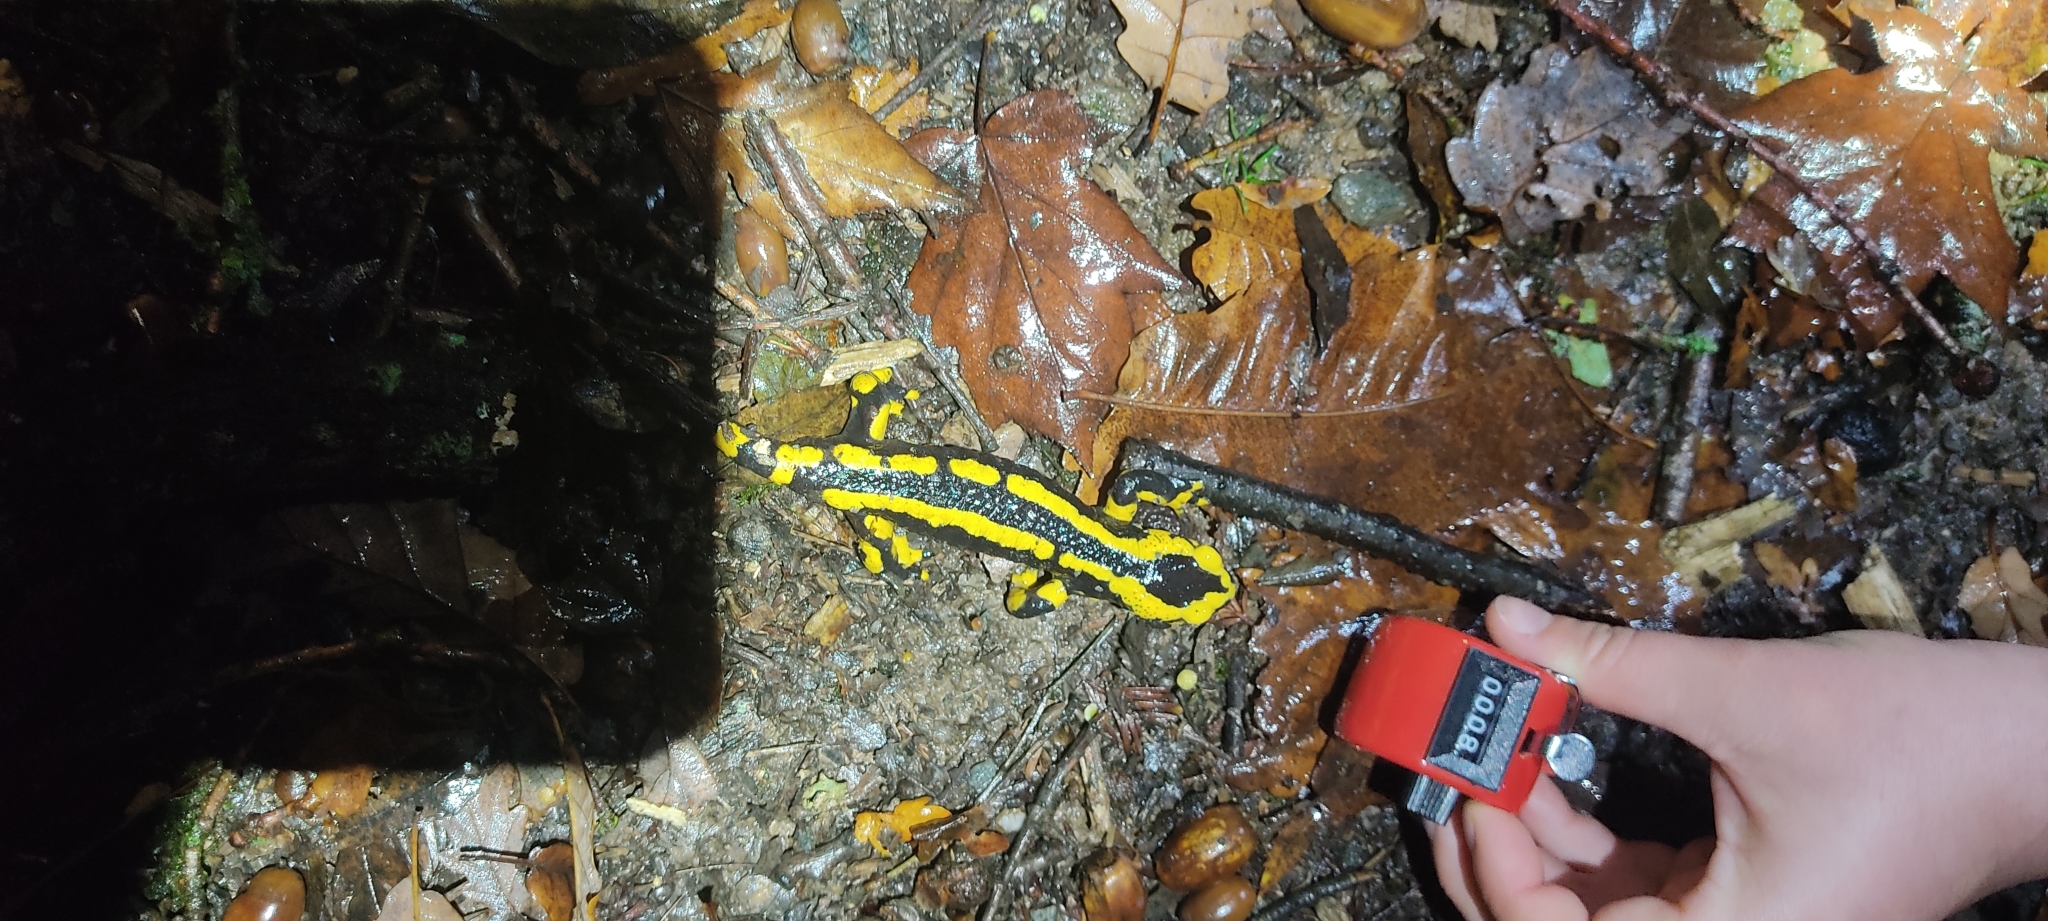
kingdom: Animalia
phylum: Chordata
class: Amphibia
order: Caudata
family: Salamandridae
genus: Salamandra
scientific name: Salamandra salamandra
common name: Fire salamander
